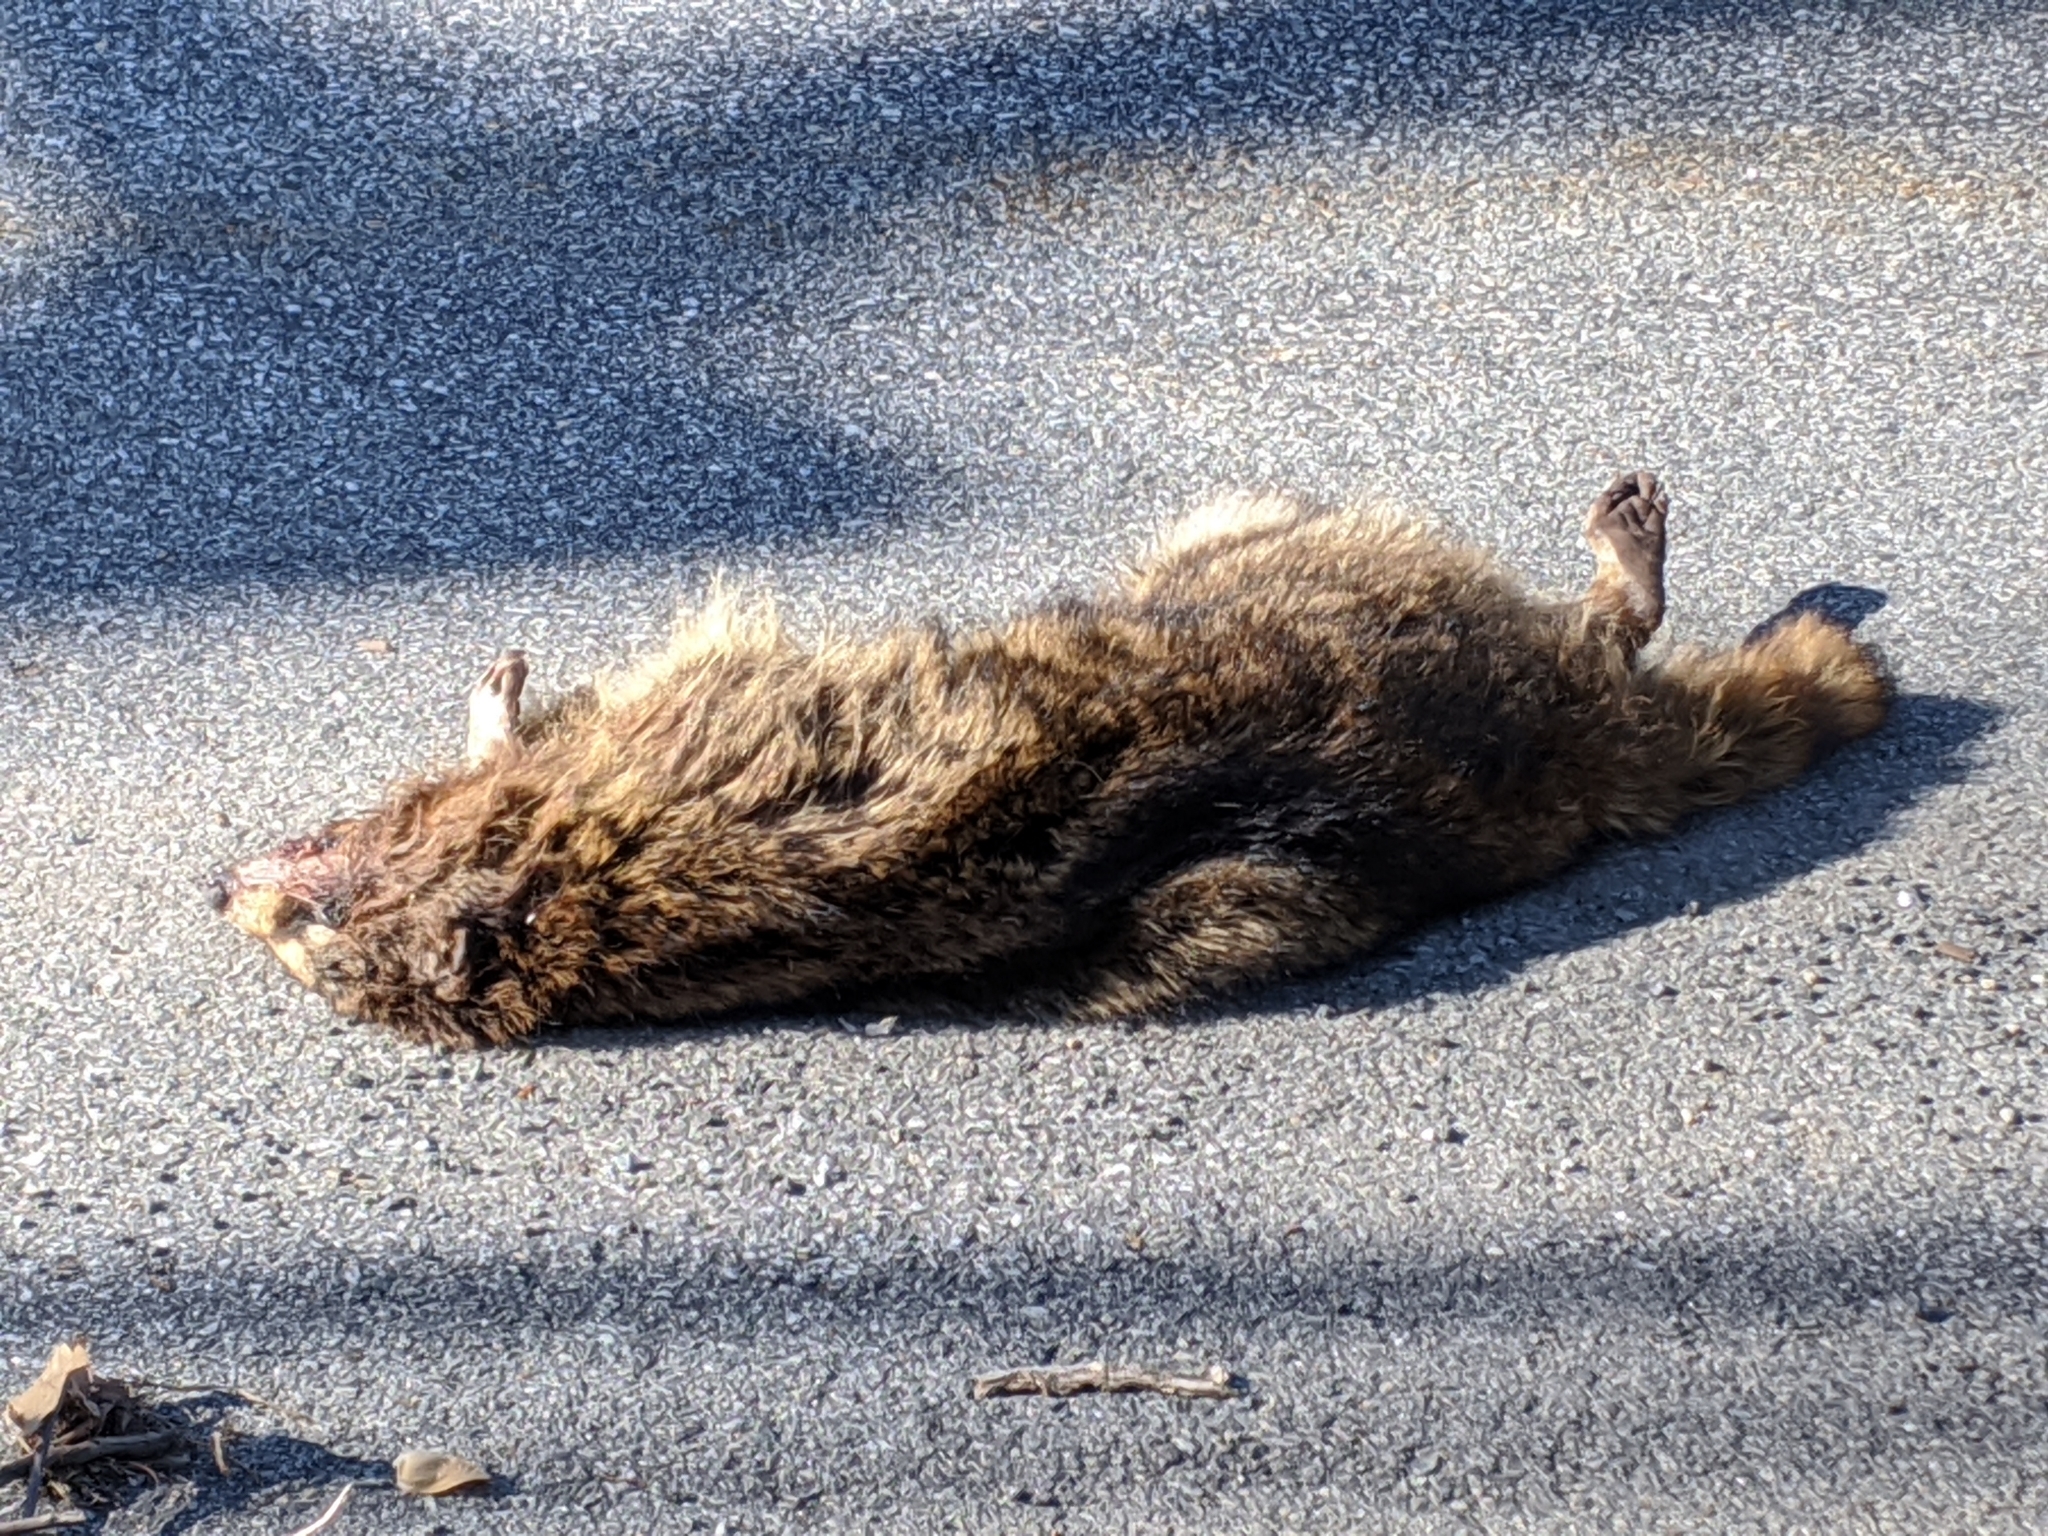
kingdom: Animalia
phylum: Chordata
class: Mammalia
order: Carnivora
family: Procyonidae
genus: Procyon
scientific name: Procyon lotor
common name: Raccoon
